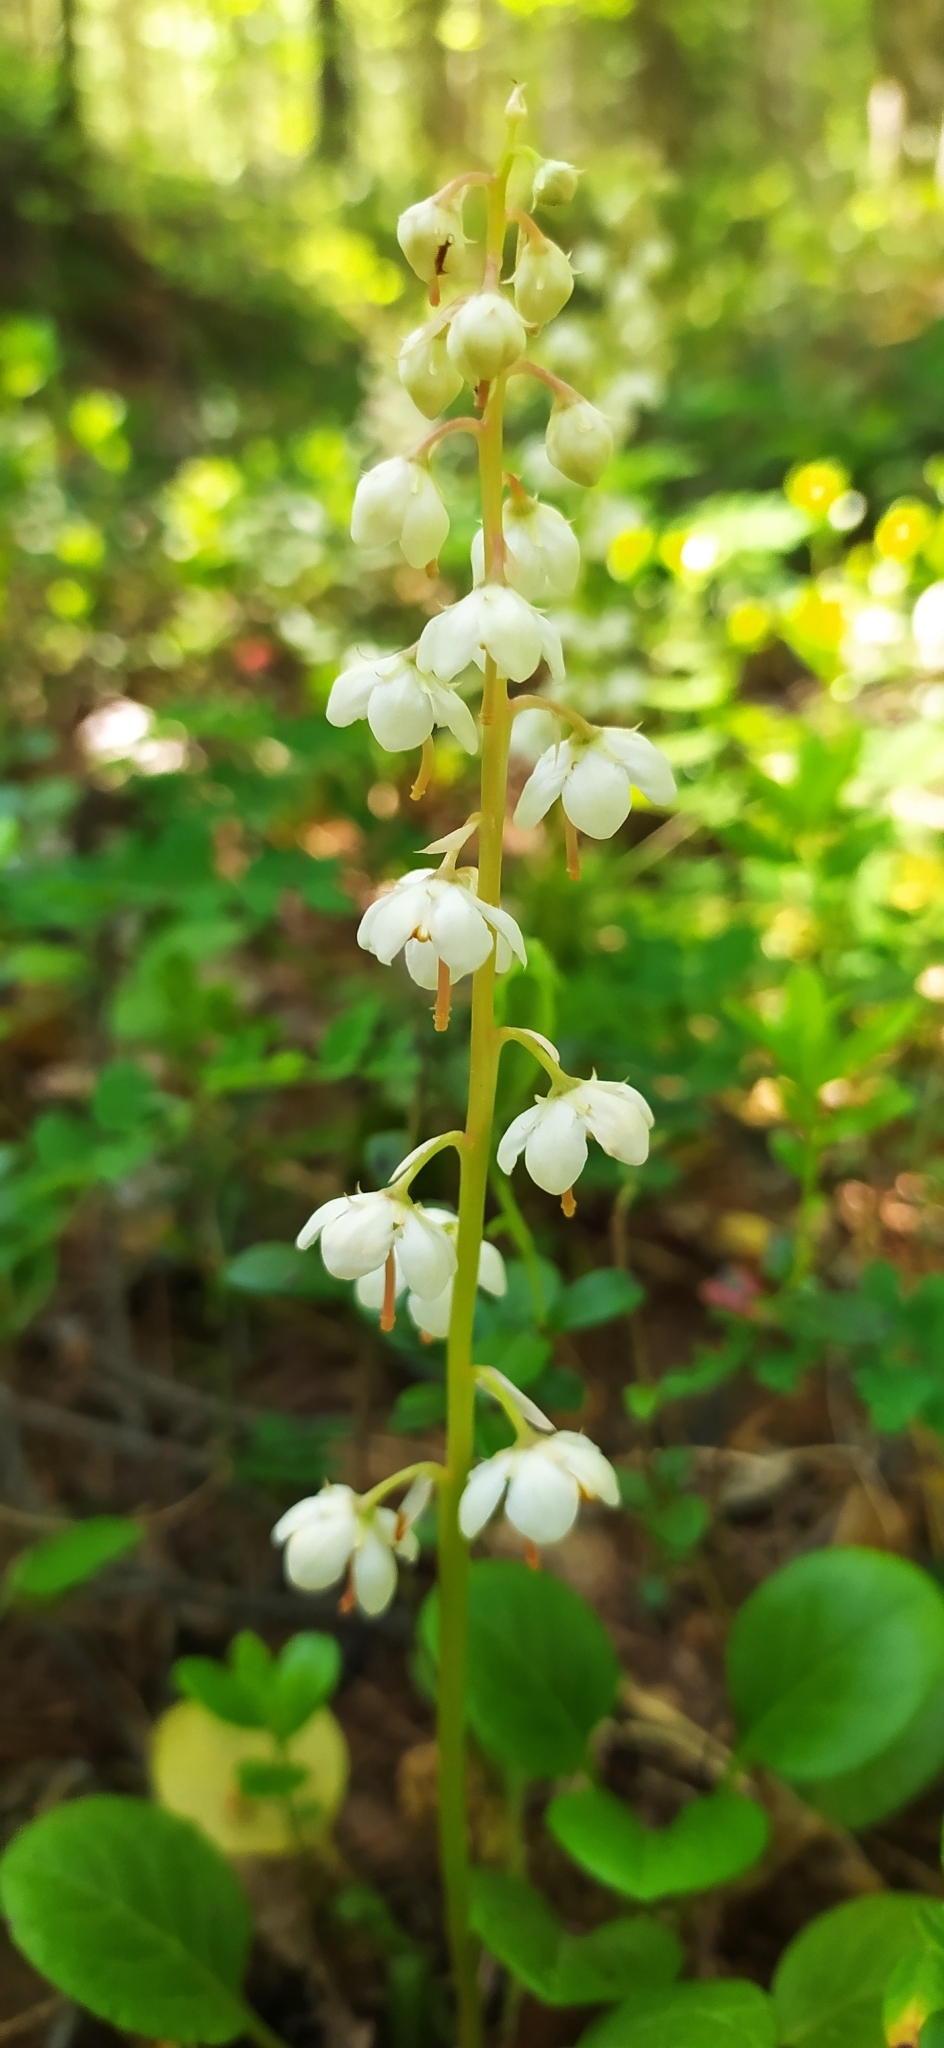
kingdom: Plantae
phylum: Tracheophyta
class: Magnoliopsida
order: Ericales
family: Ericaceae
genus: Pyrola
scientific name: Pyrola rotundifolia
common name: Round-leaved wintergreen
